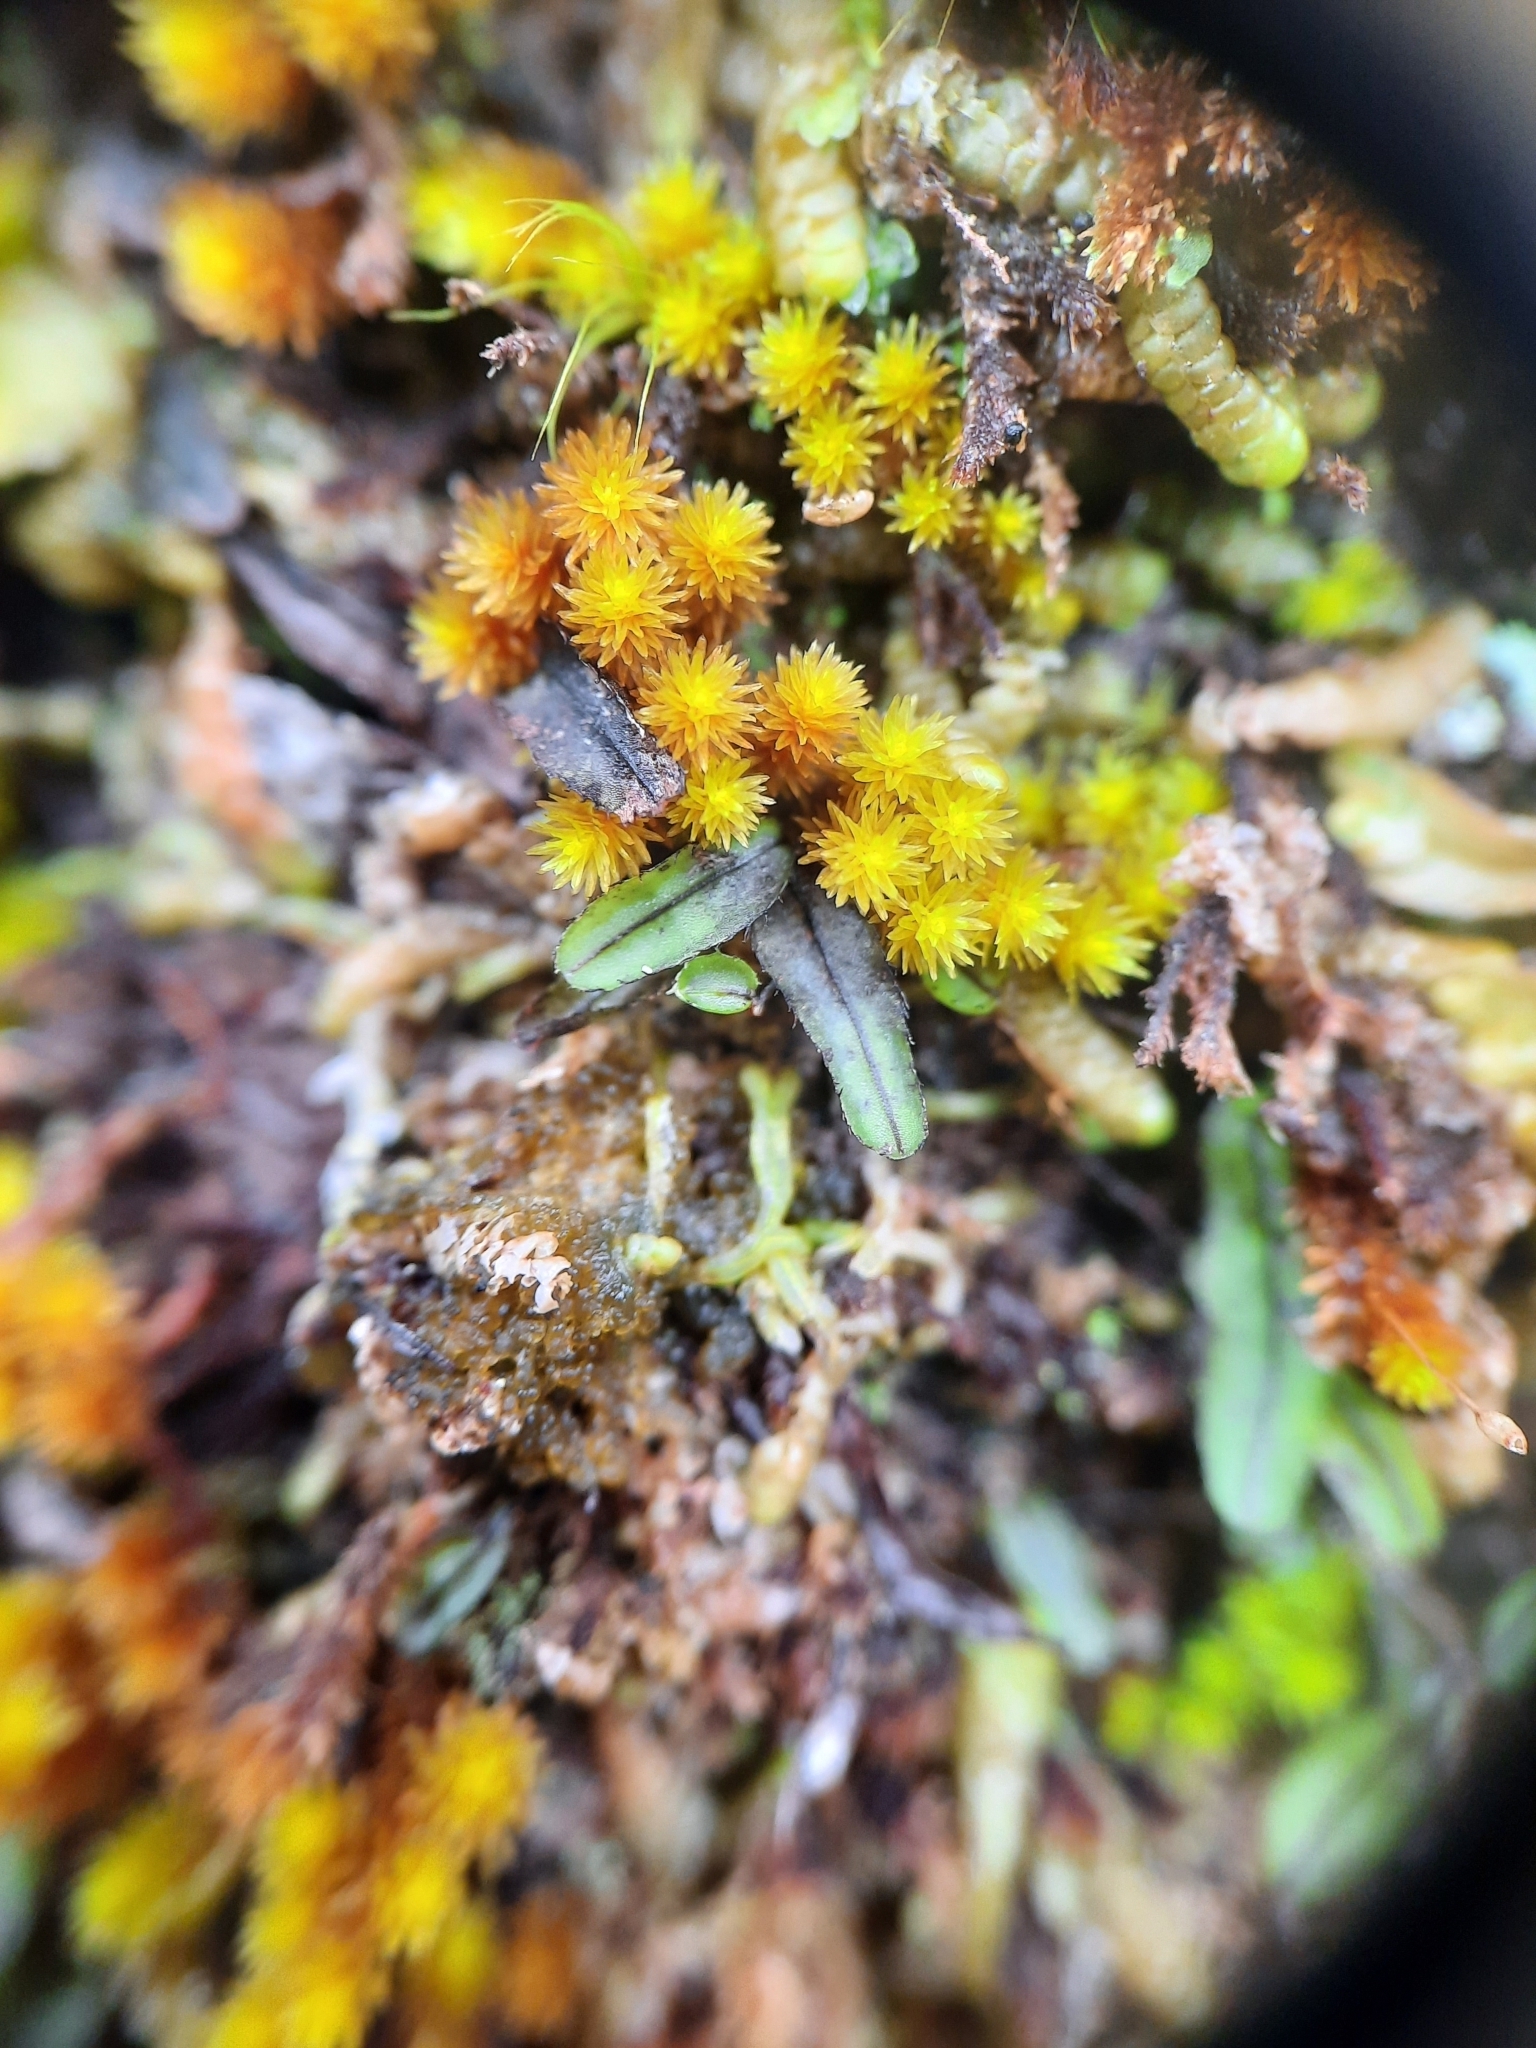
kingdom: Plantae
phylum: Tracheophyta
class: Polypodiopsida
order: Hymenophyllales
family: Hymenophyllaceae
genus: Hymenophyllum
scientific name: Hymenophyllum armstrongii
